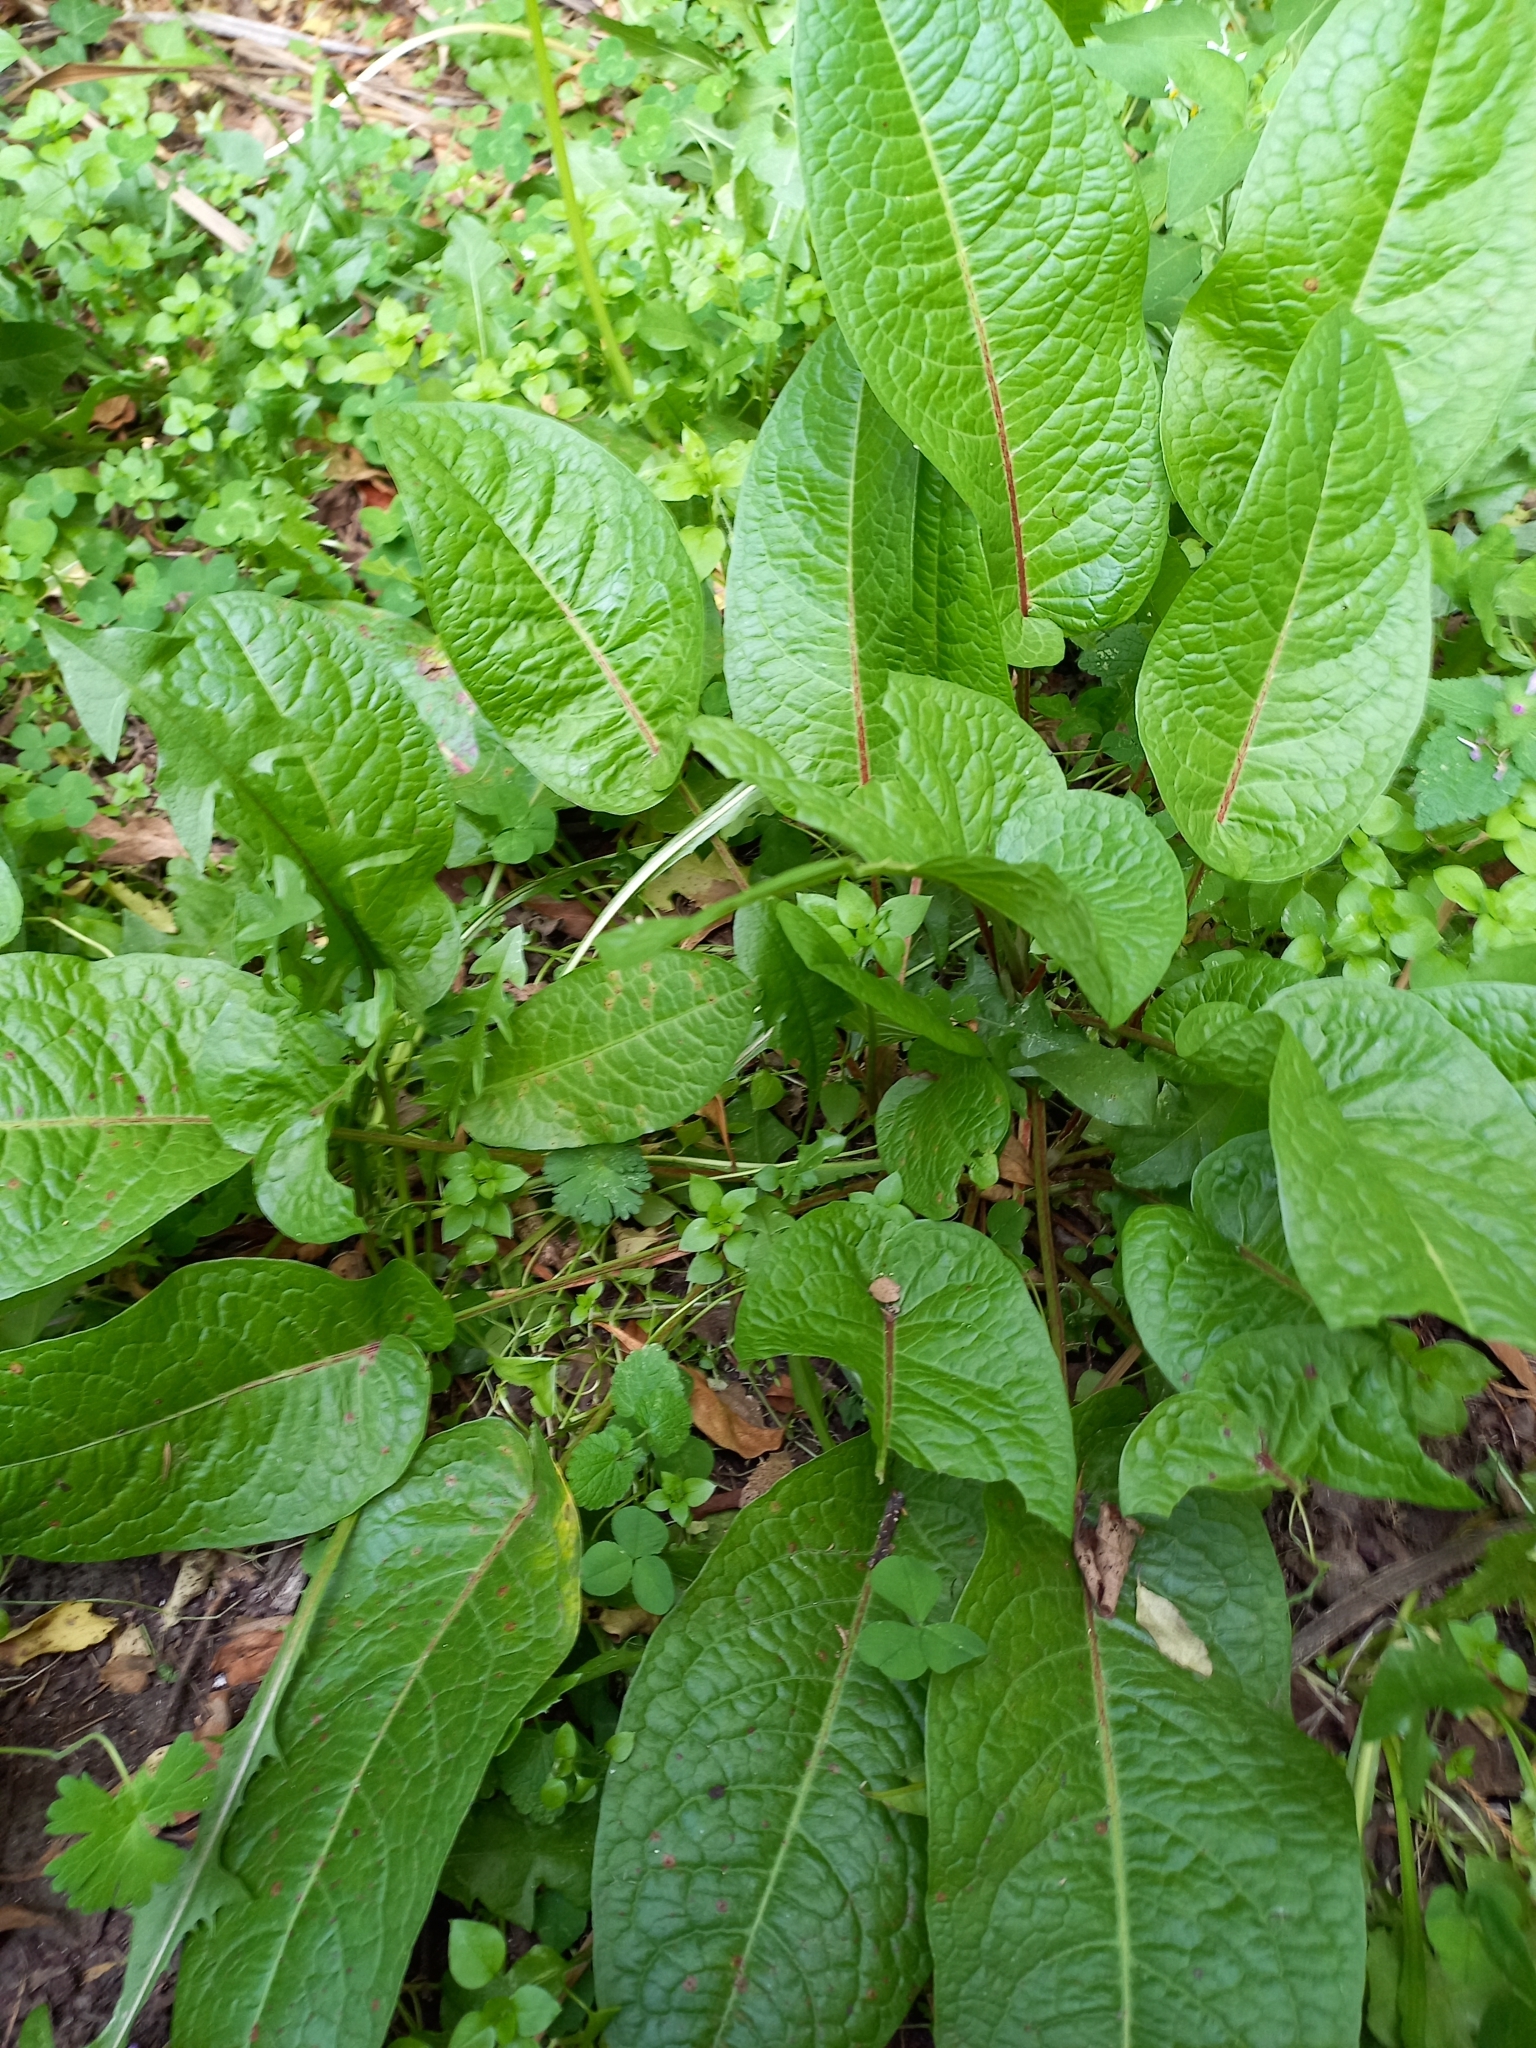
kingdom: Plantae
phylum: Tracheophyta
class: Magnoliopsida
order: Caryophyllales
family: Polygonaceae
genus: Rumex
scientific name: Rumex obtusifolius
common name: Bitter dock
